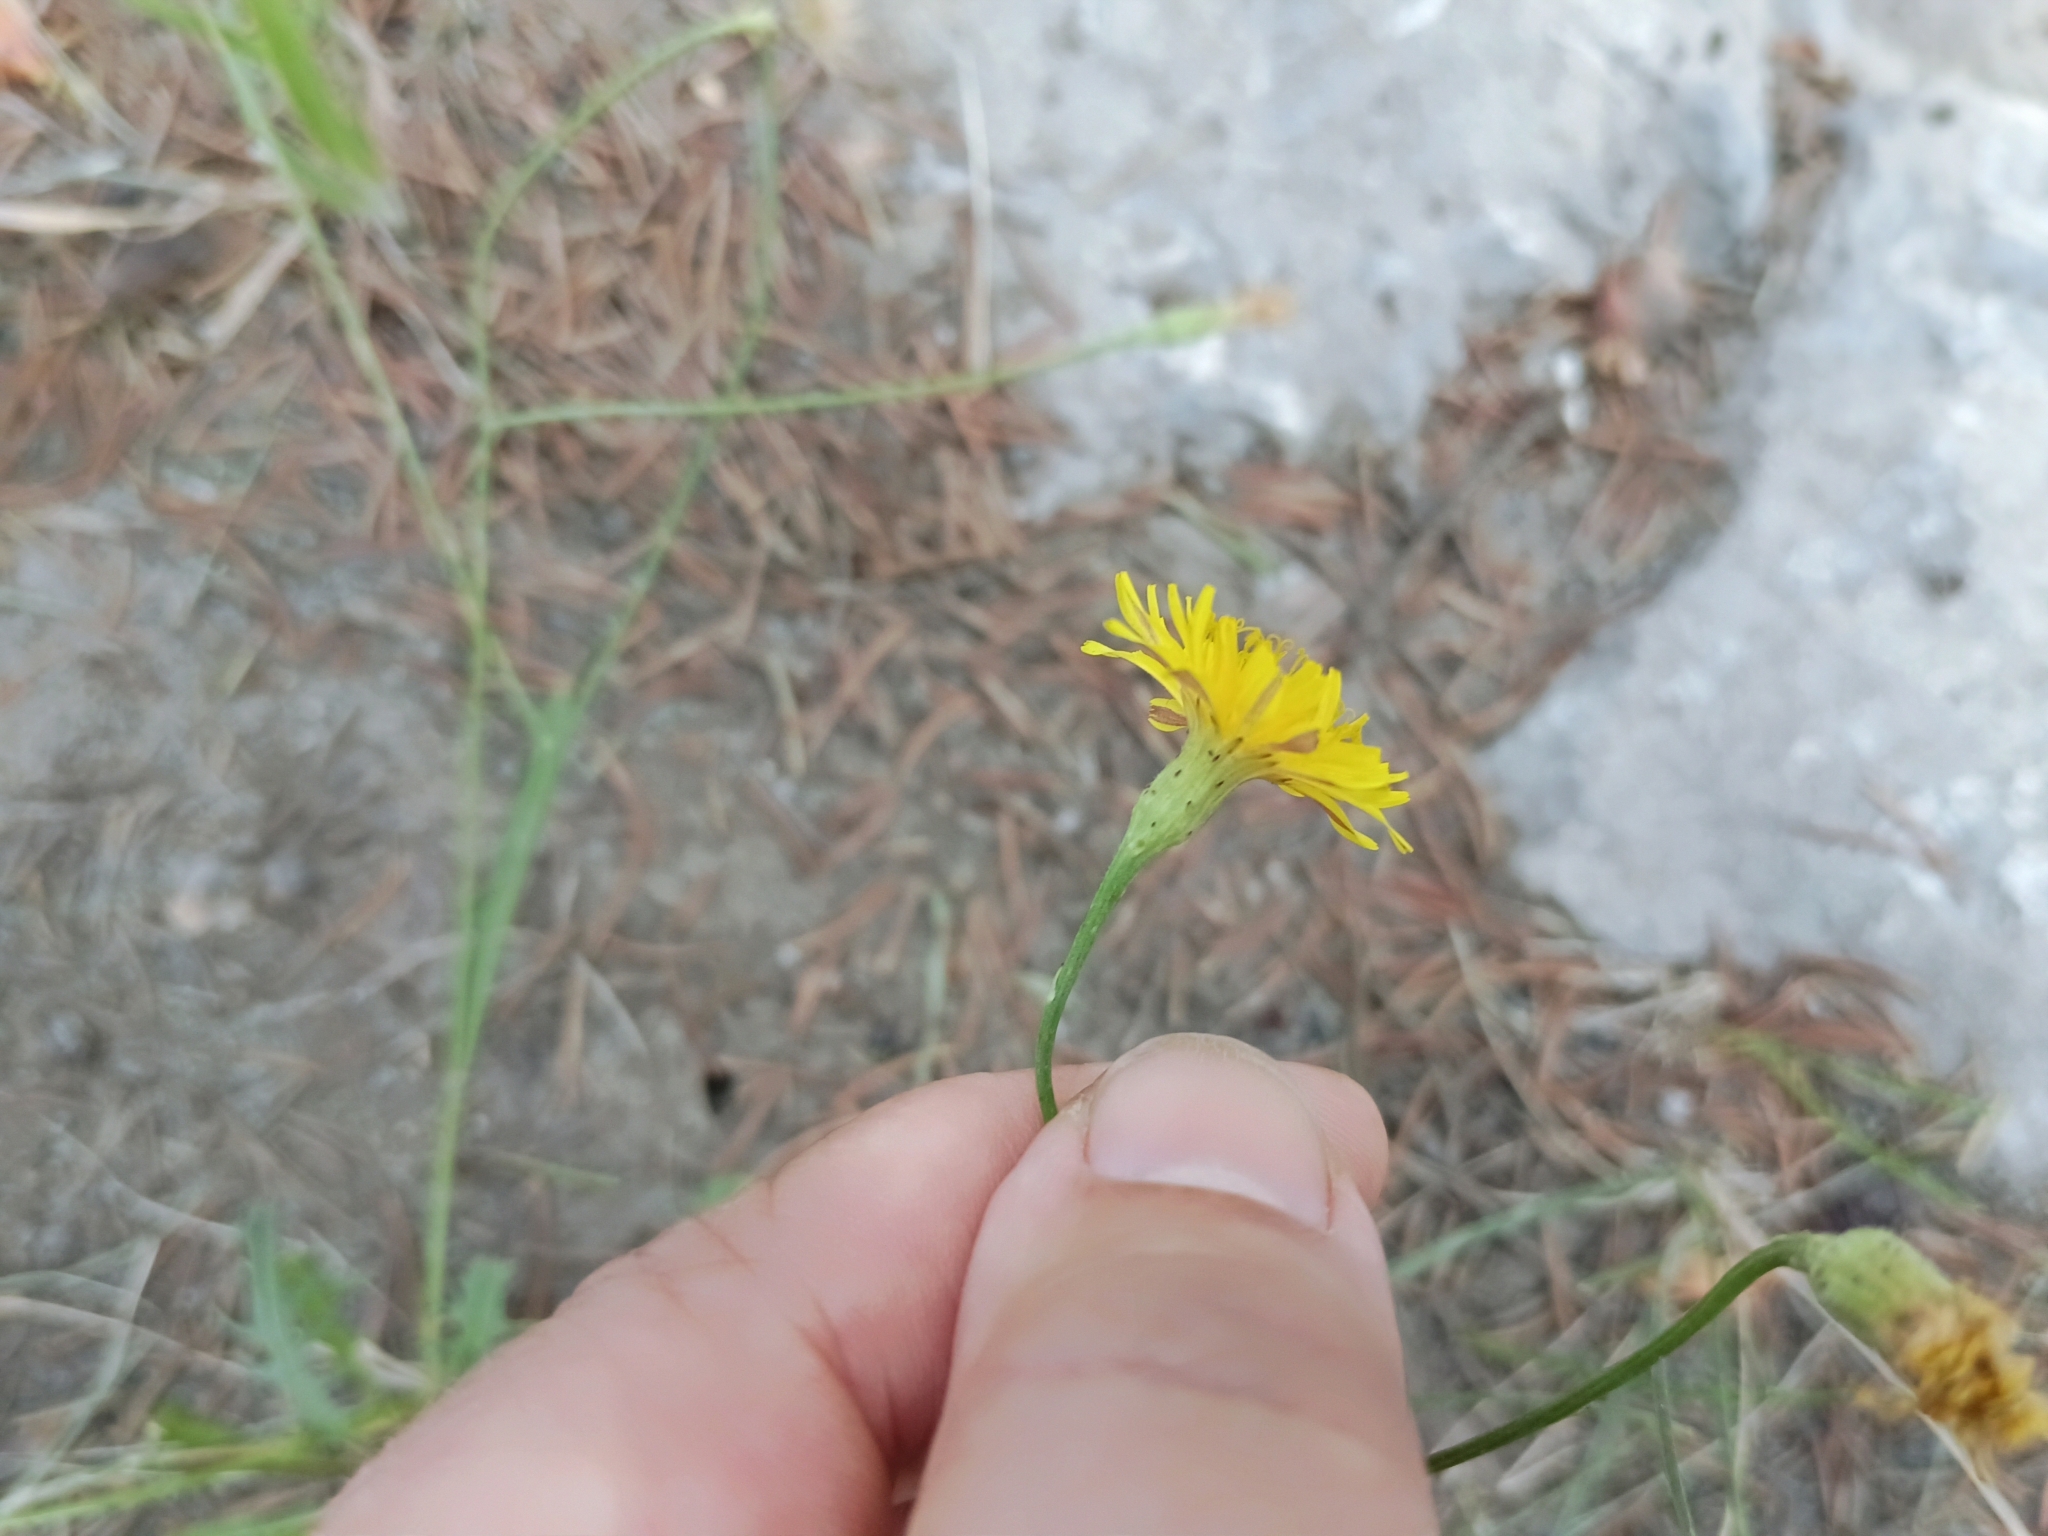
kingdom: Plantae
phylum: Tracheophyta
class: Magnoliopsida
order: Asterales
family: Asteraceae
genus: Scorzoneroides
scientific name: Scorzoneroides autumnalis
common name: Autumn hawkbit
